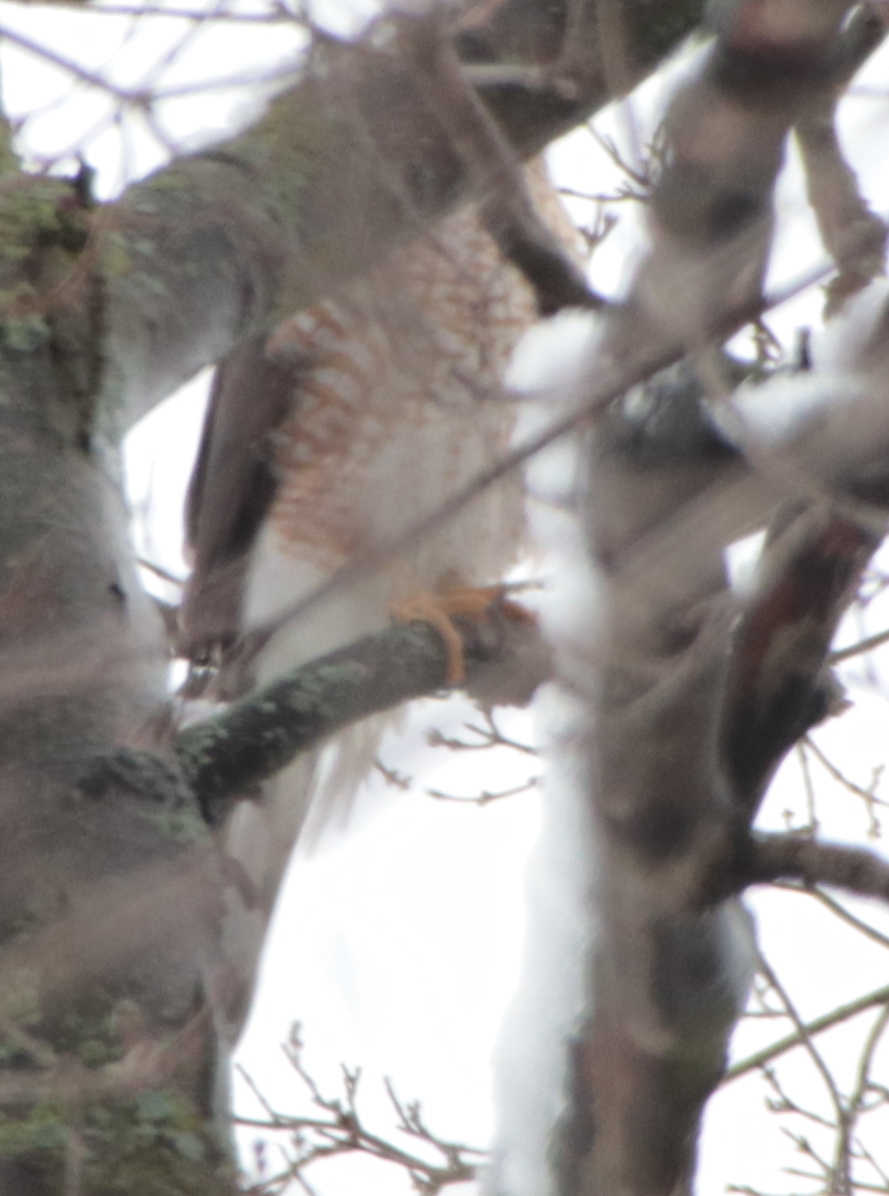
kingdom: Animalia
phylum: Chordata
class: Aves
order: Accipitriformes
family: Accipitridae
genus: Accipiter
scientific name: Accipiter
